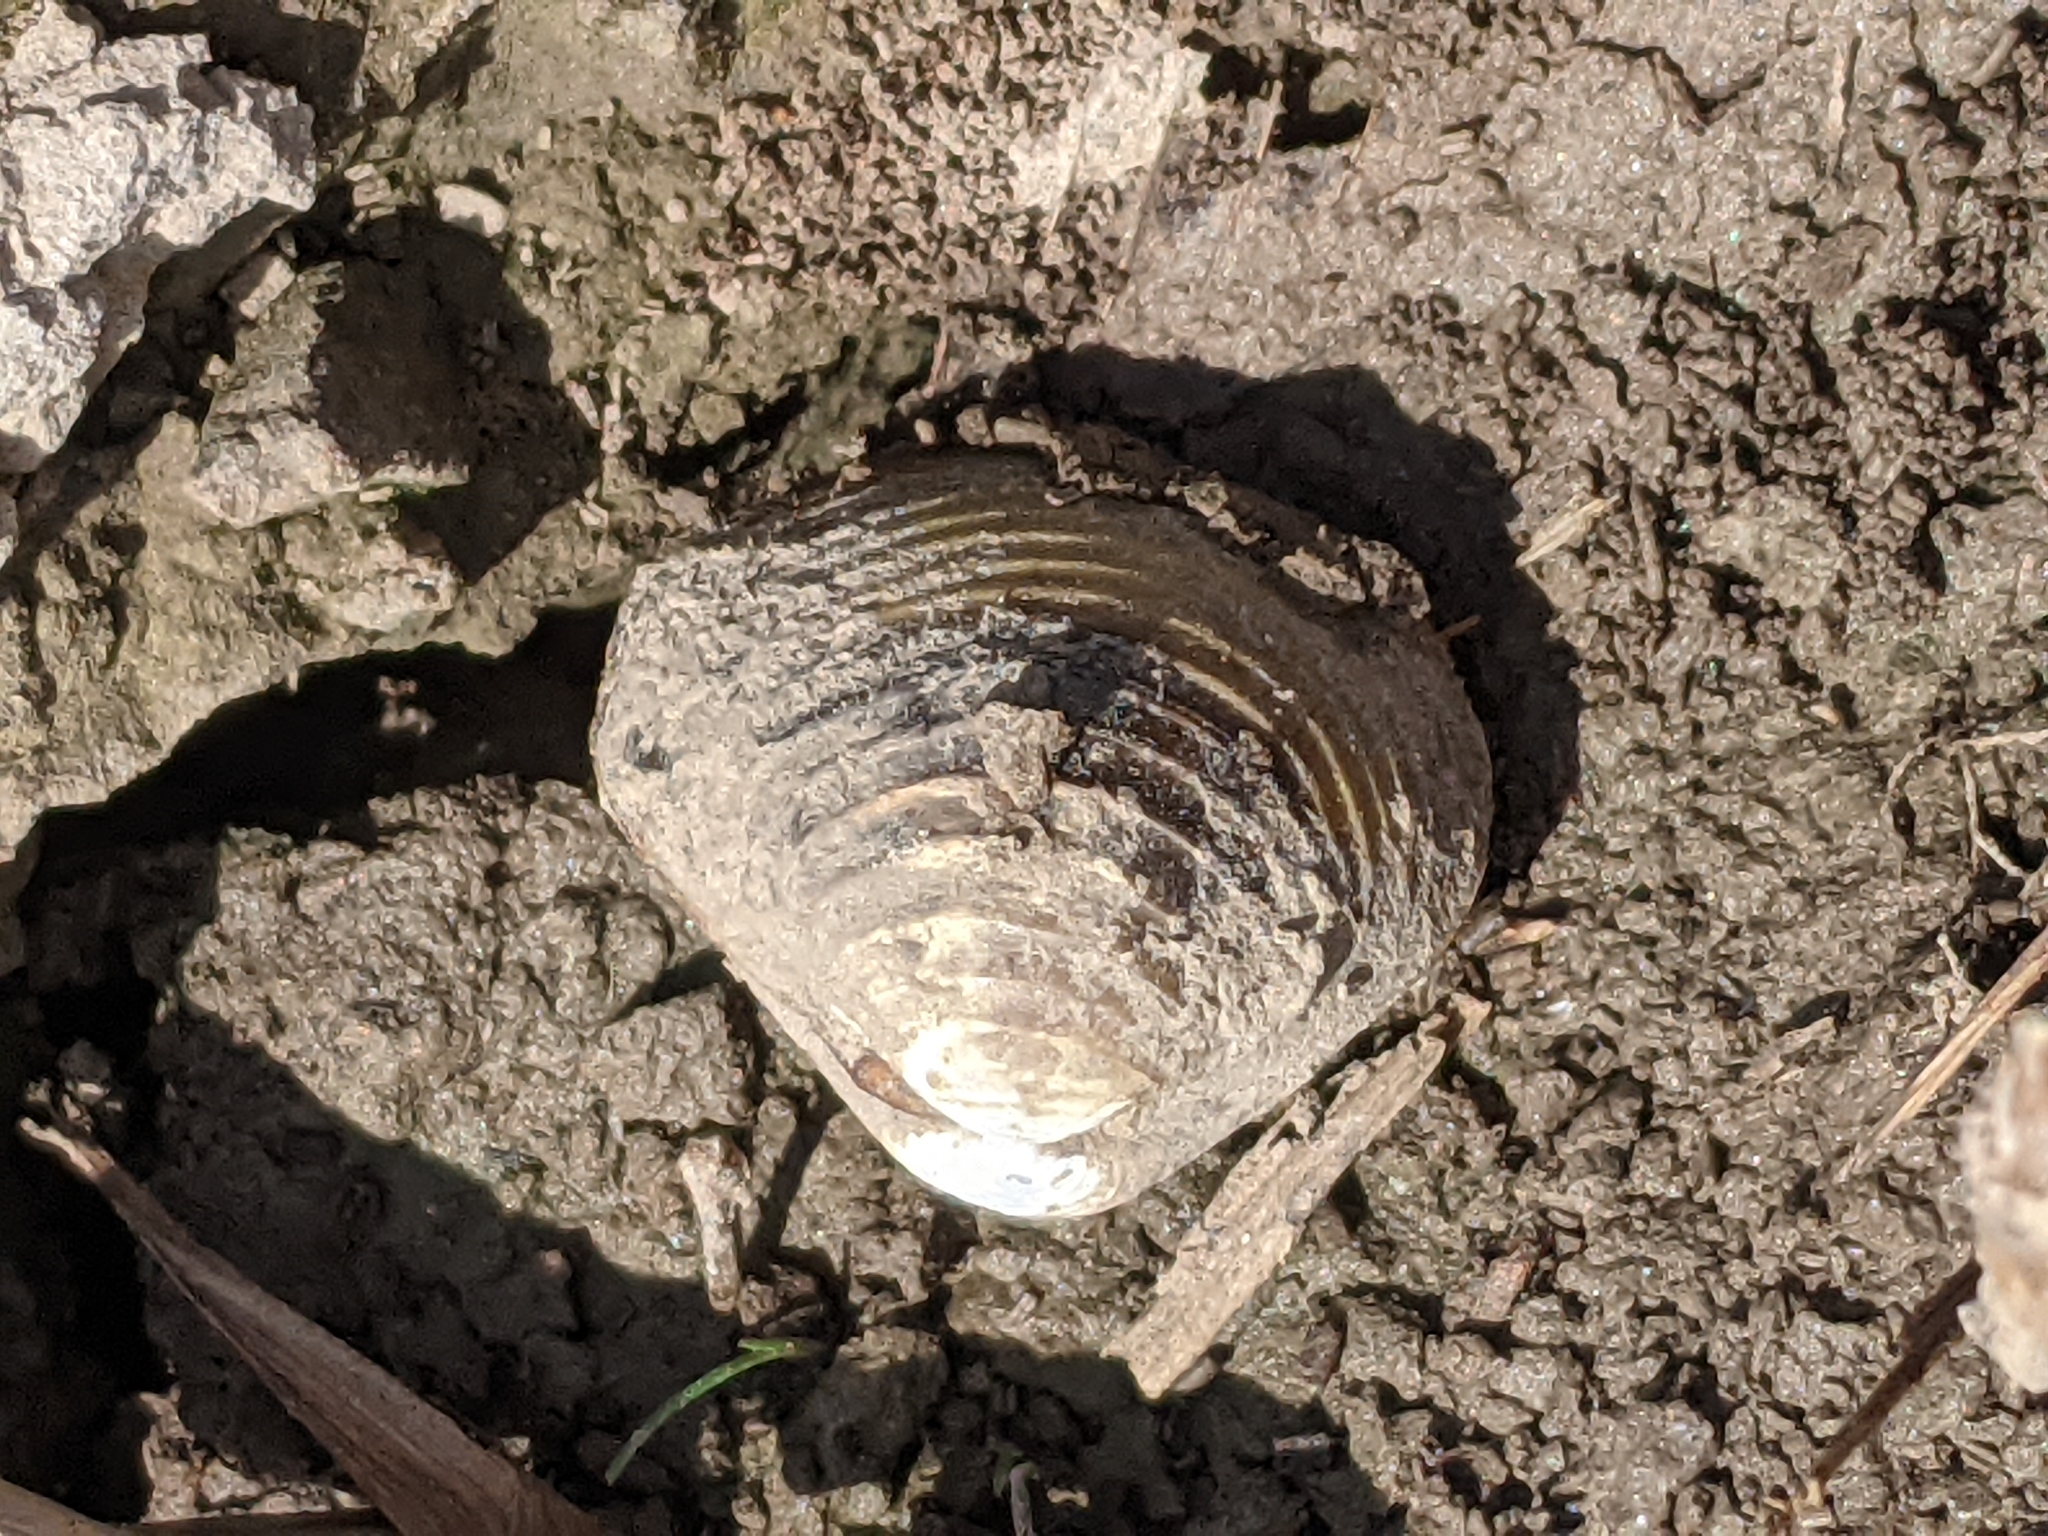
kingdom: Animalia
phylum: Mollusca
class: Bivalvia
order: Venerida
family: Cyrenidae
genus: Corbicula
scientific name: Corbicula fluminea
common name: Asian clam
